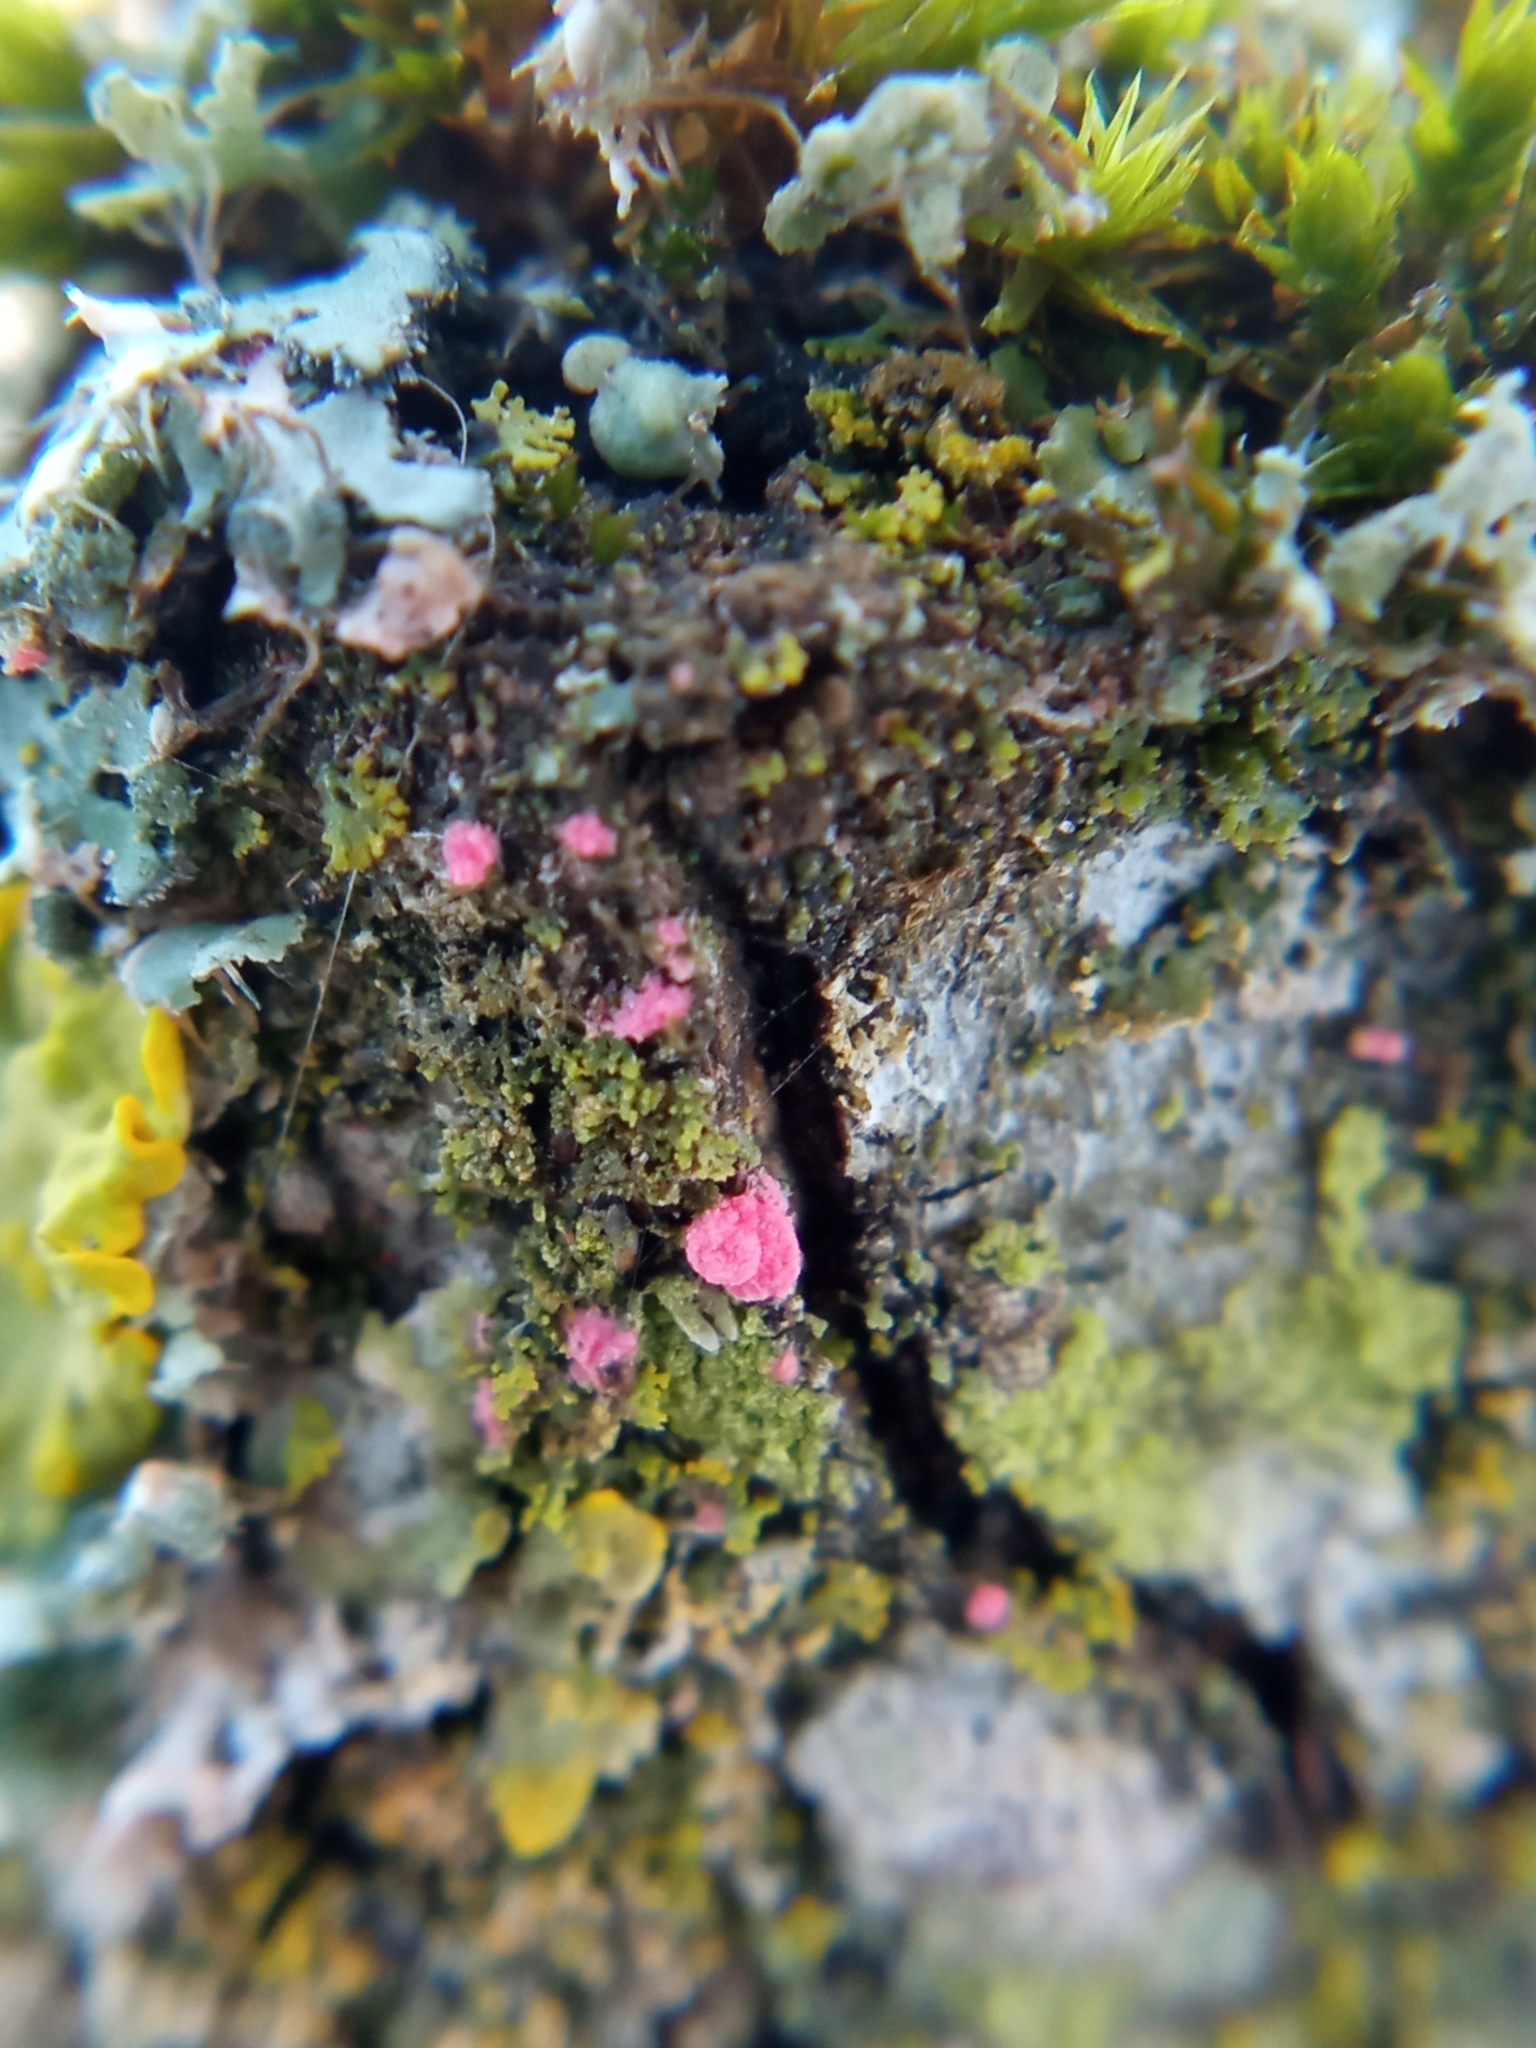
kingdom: Fungi
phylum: Ascomycota
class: Sordariomycetes
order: Hypocreales
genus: Illosporiopsis
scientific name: Illosporiopsis christiansenii
